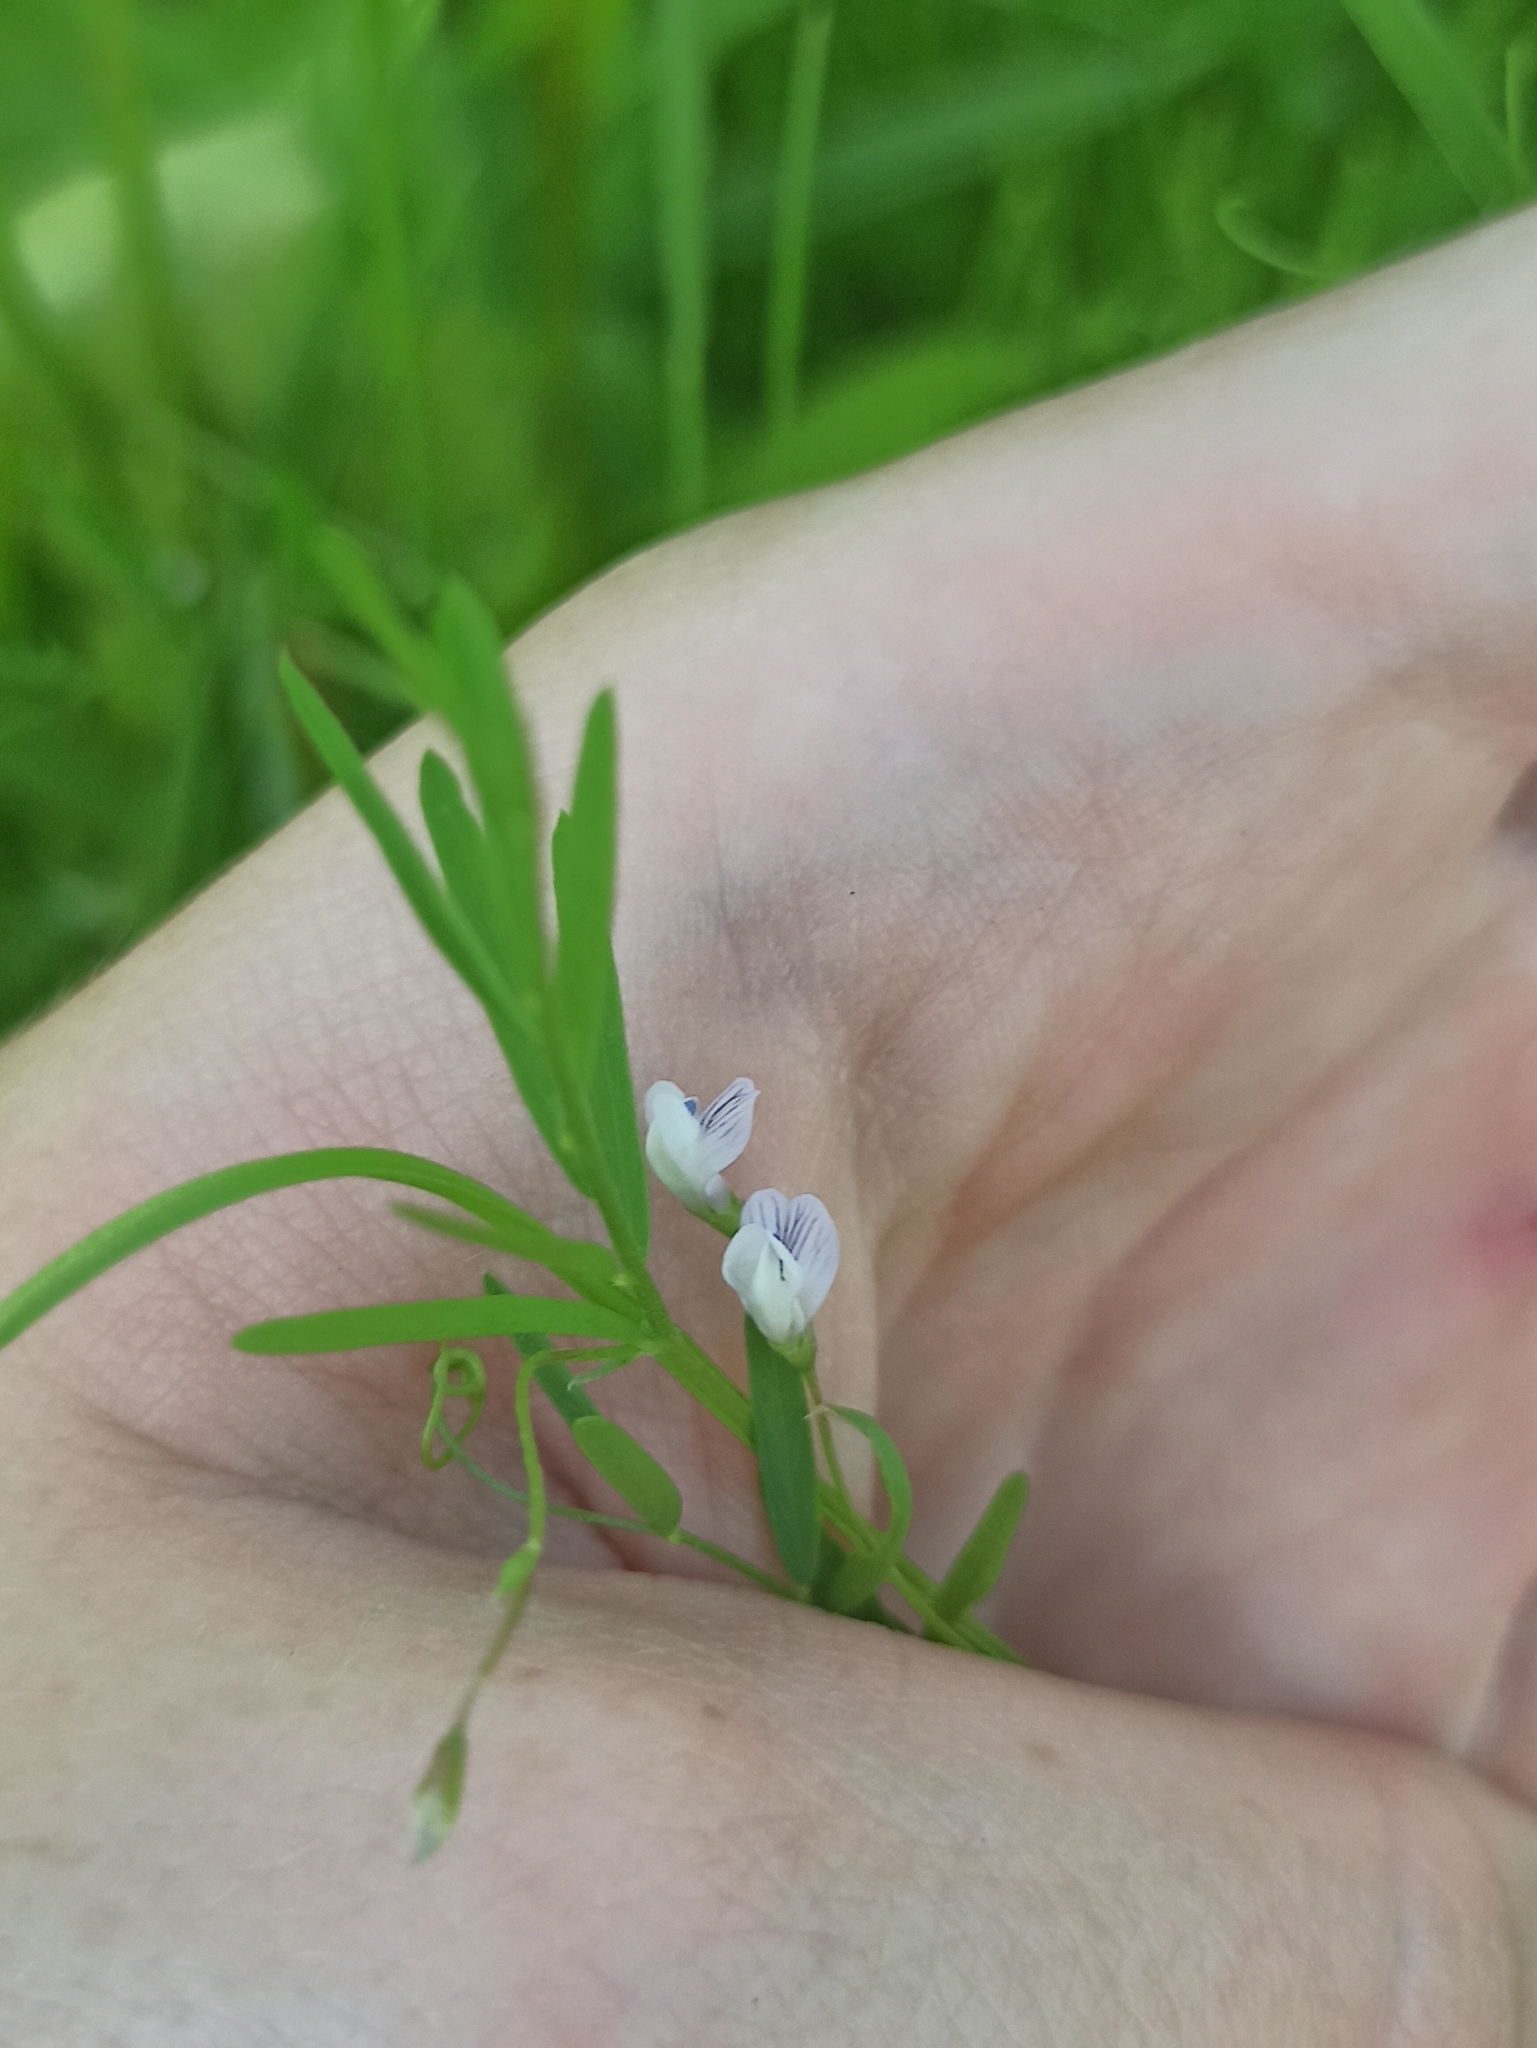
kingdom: Plantae
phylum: Tracheophyta
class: Magnoliopsida
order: Fabales
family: Fabaceae
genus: Vicia
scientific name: Vicia tetrasperma
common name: Smooth tare
